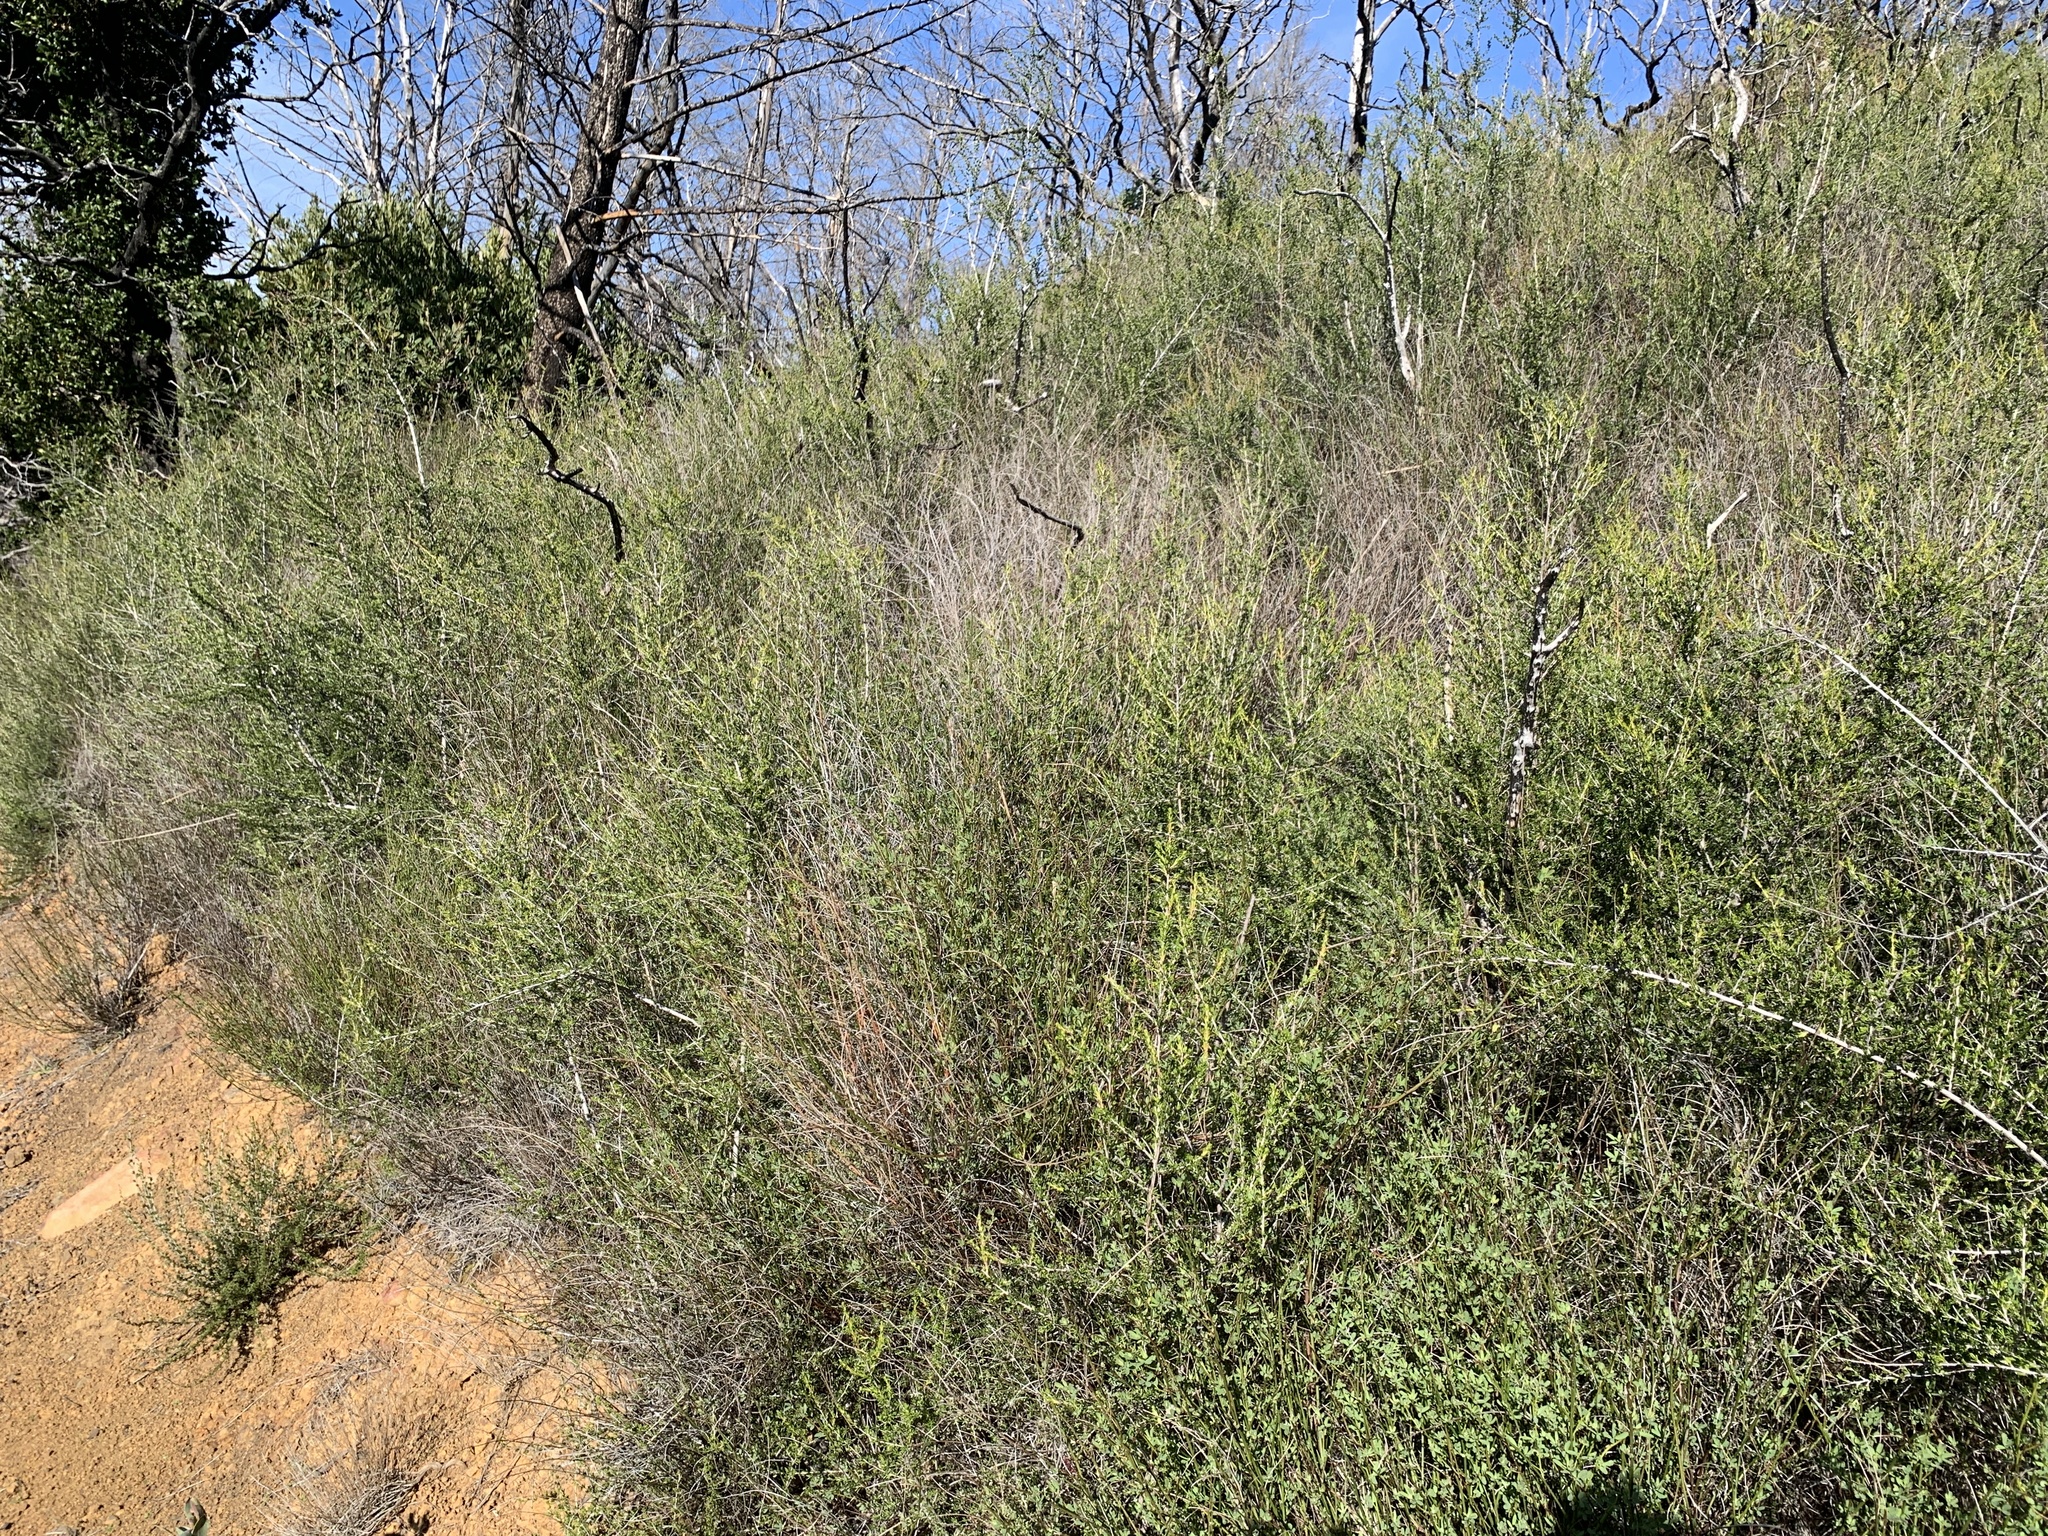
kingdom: Plantae
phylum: Tracheophyta
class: Magnoliopsida
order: Rosales
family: Rosaceae
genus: Adenostoma
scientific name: Adenostoma fasciculatum
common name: Chamise
